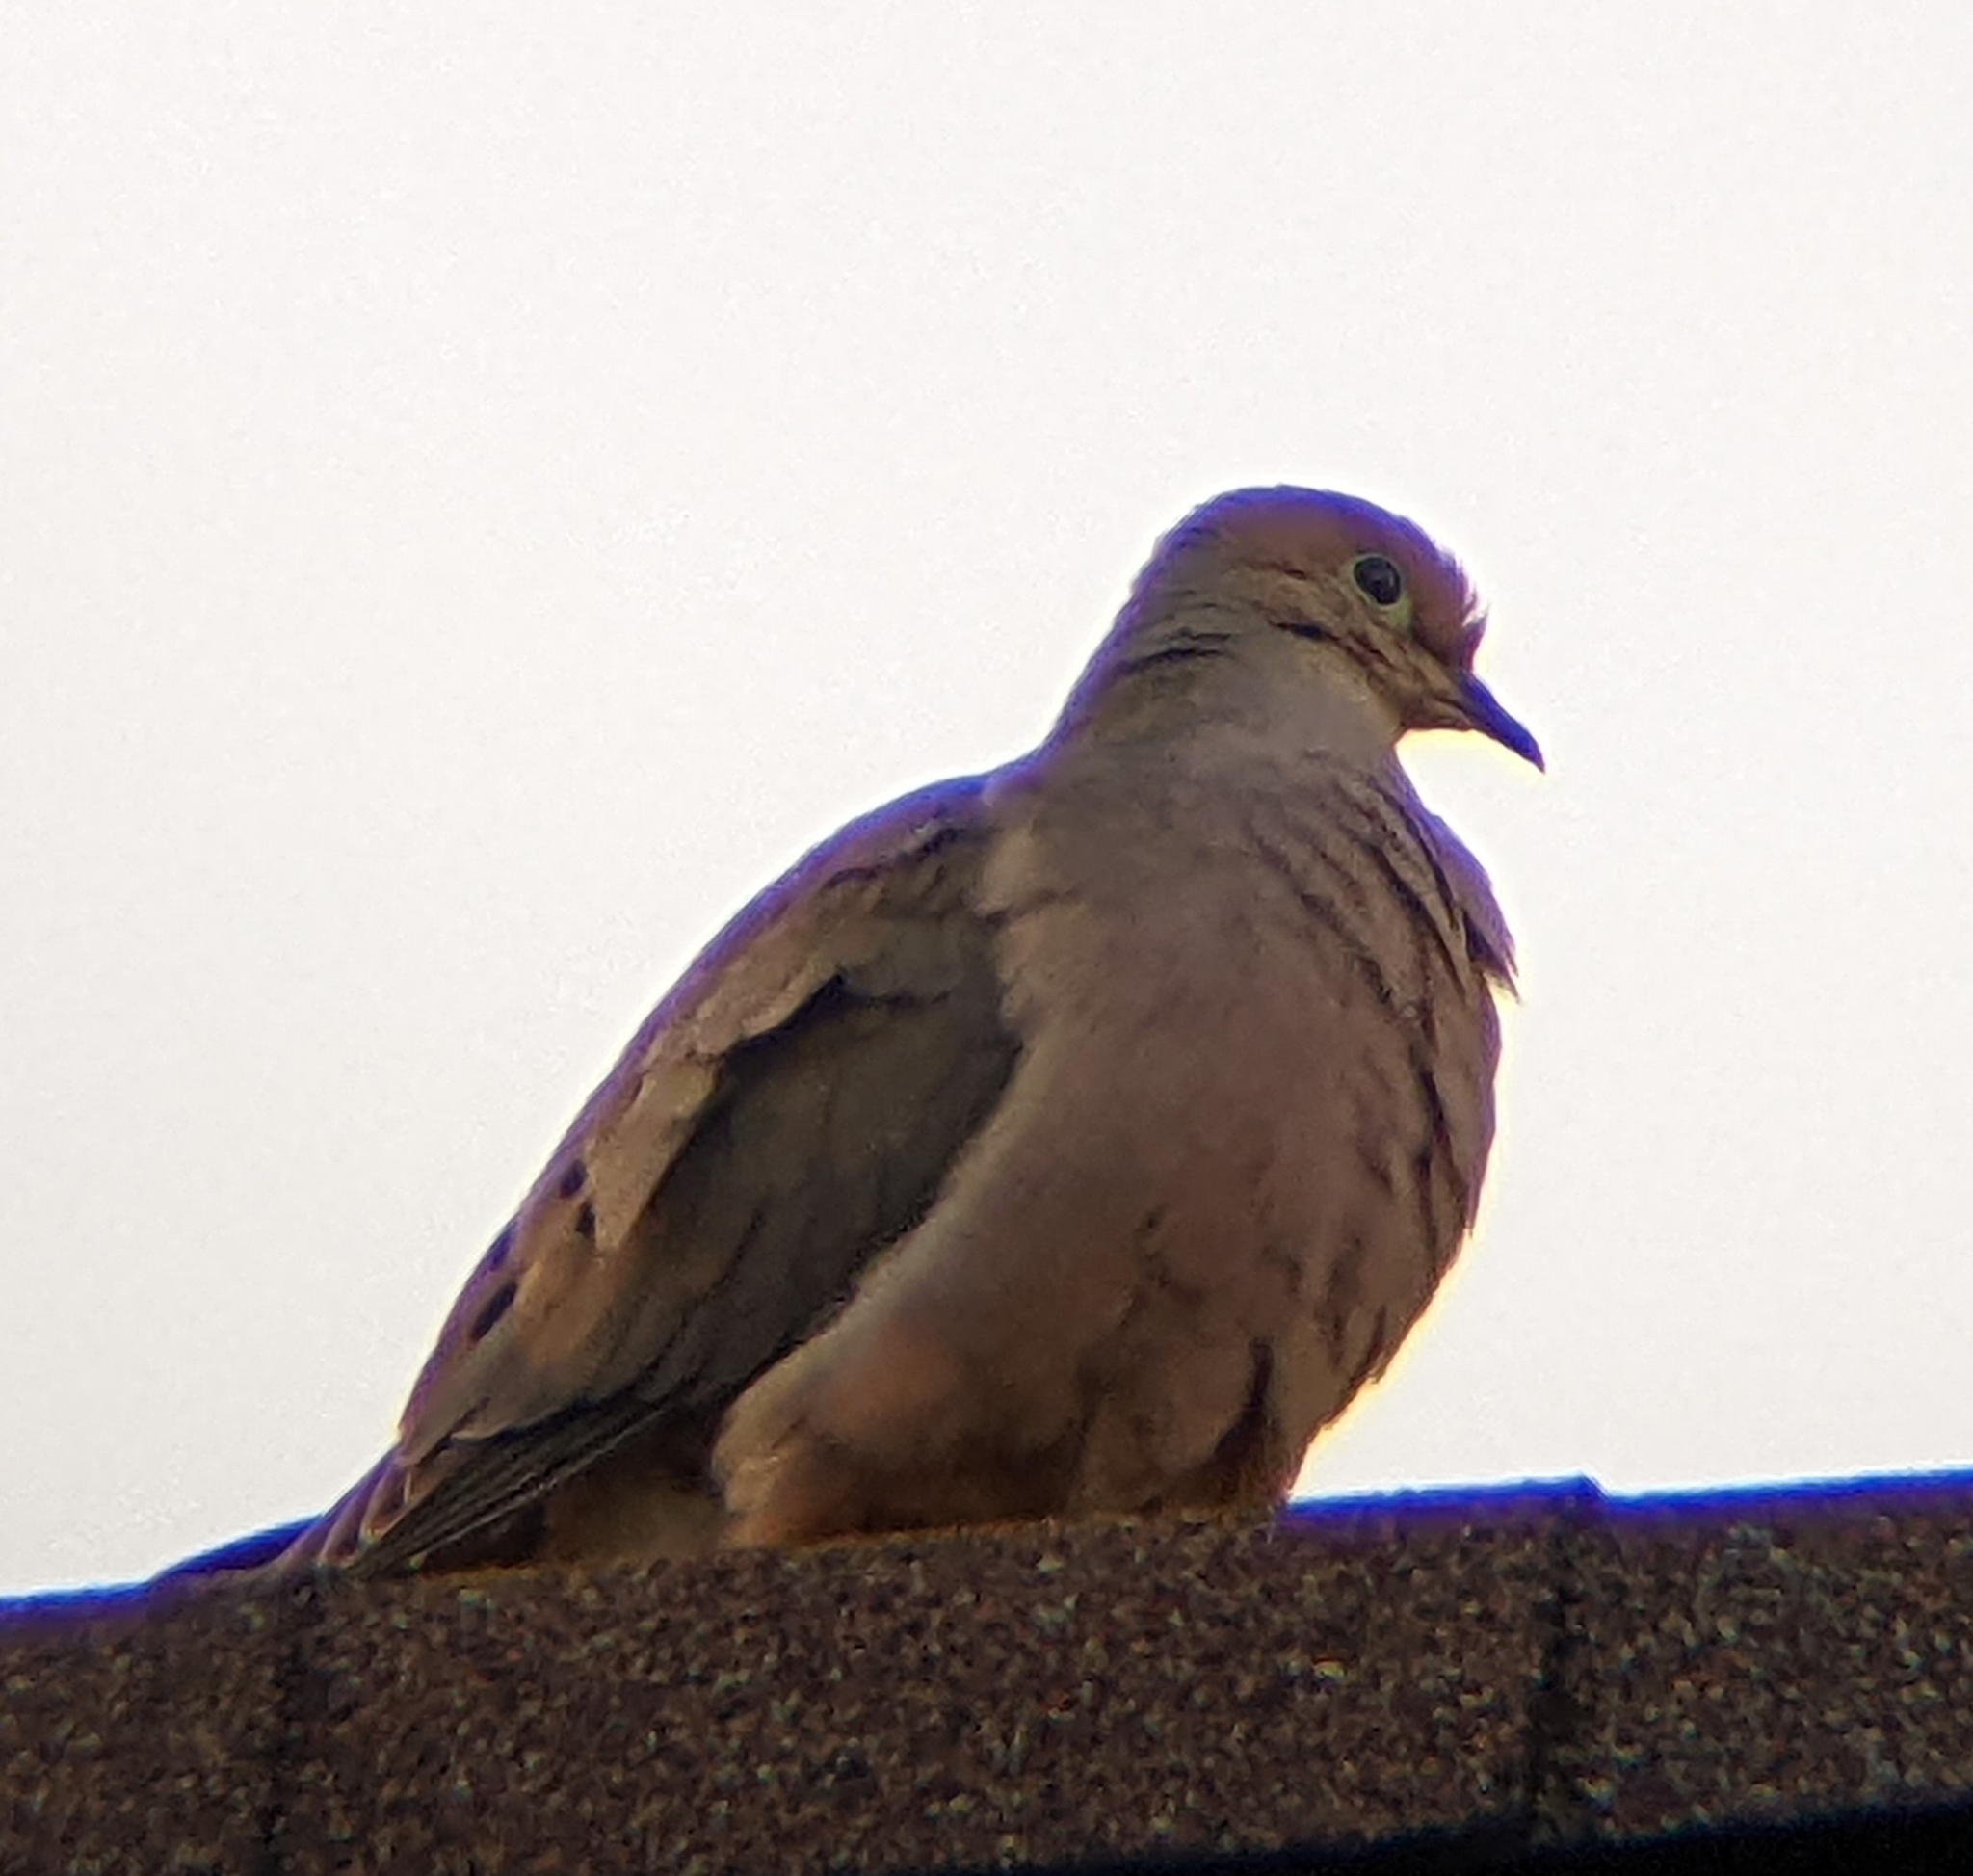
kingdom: Animalia
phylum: Chordata
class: Aves
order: Columbiformes
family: Columbidae
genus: Zenaida
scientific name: Zenaida macroura
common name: Mourning dove
